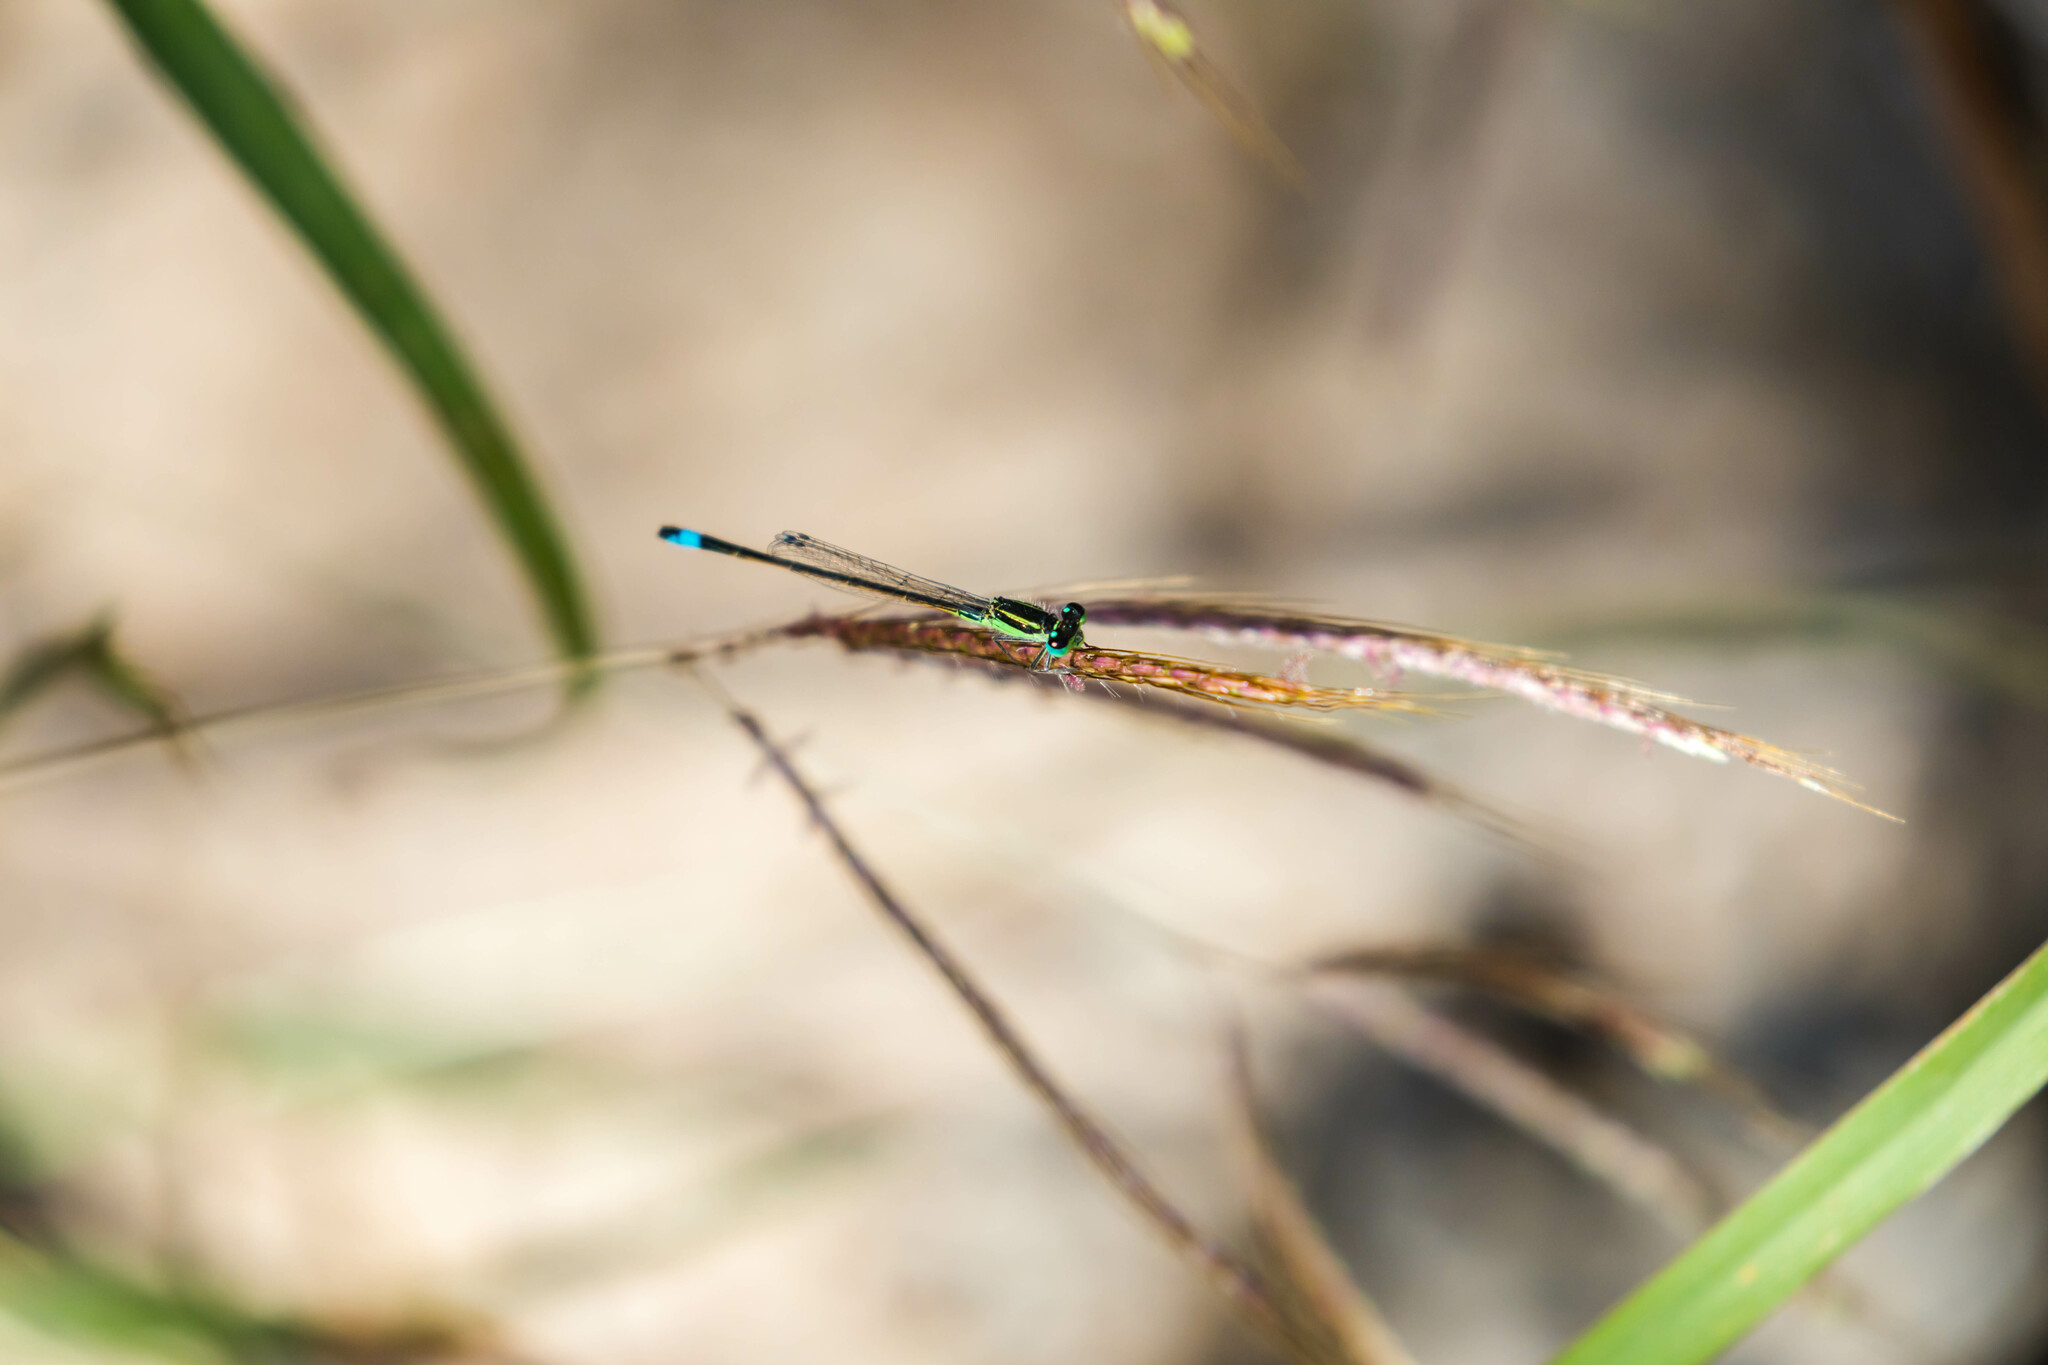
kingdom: Animalia
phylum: Arthropoda
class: Insecta
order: Odonata
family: Coenagrionidae
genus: Ischnura
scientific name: Ischnura ramburii
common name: Rambur's forktail
